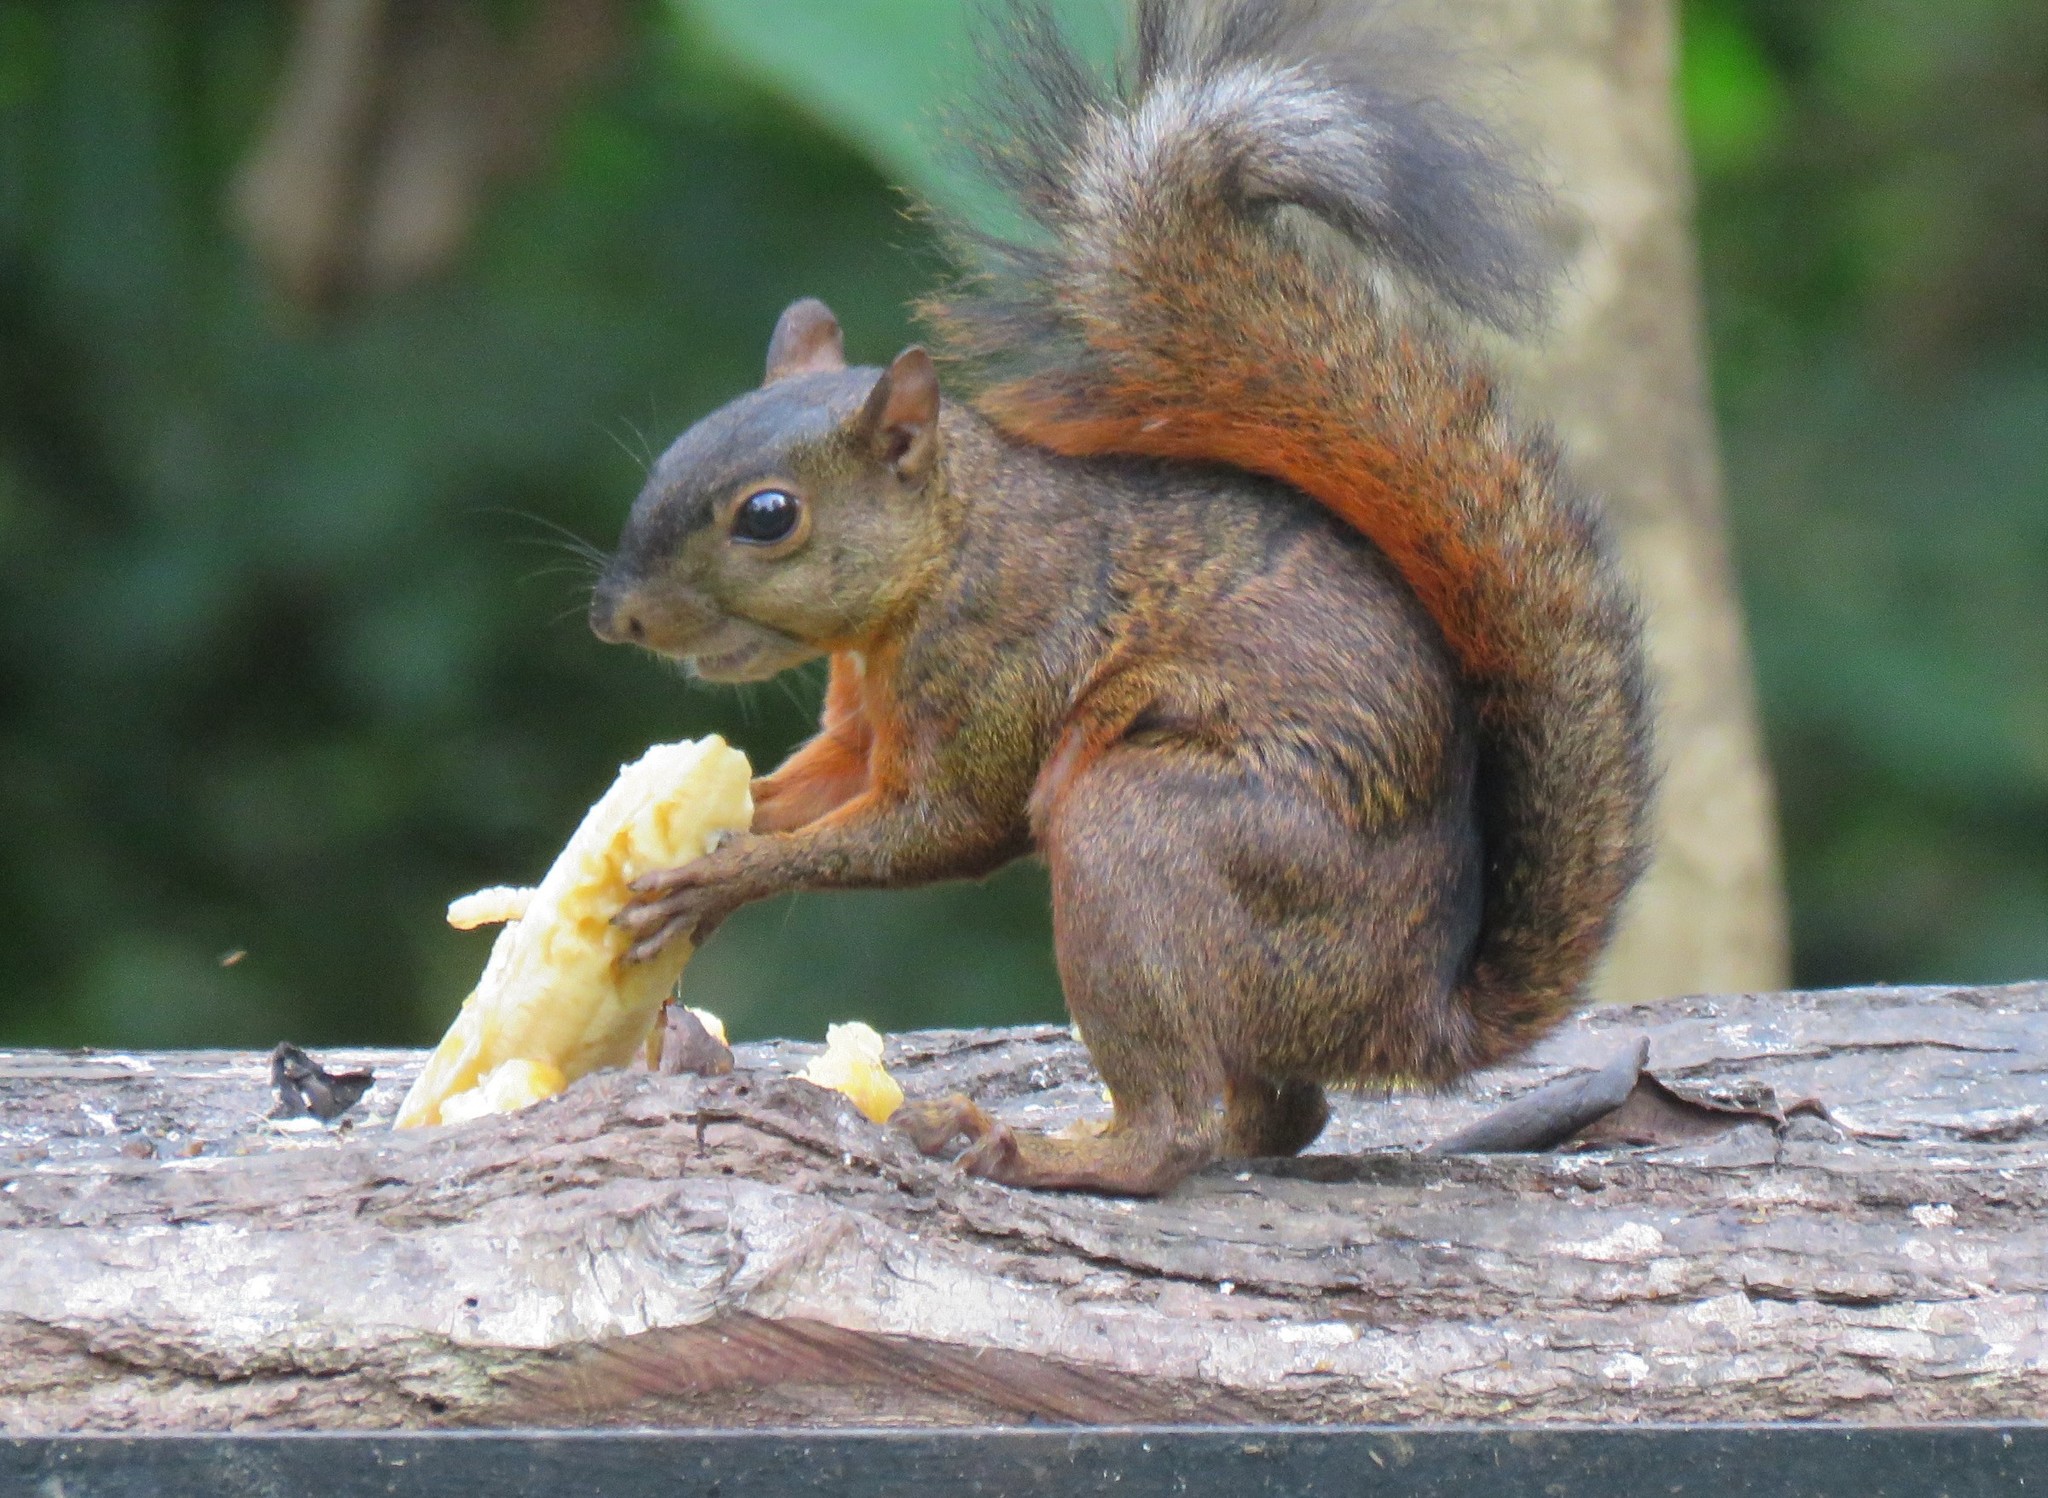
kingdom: Animalia
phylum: Chordata
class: Mammalia
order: Rodentia
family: Sciuridae
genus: Sciurus
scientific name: Sciurus granatensis
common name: Red-tailed squirrel
